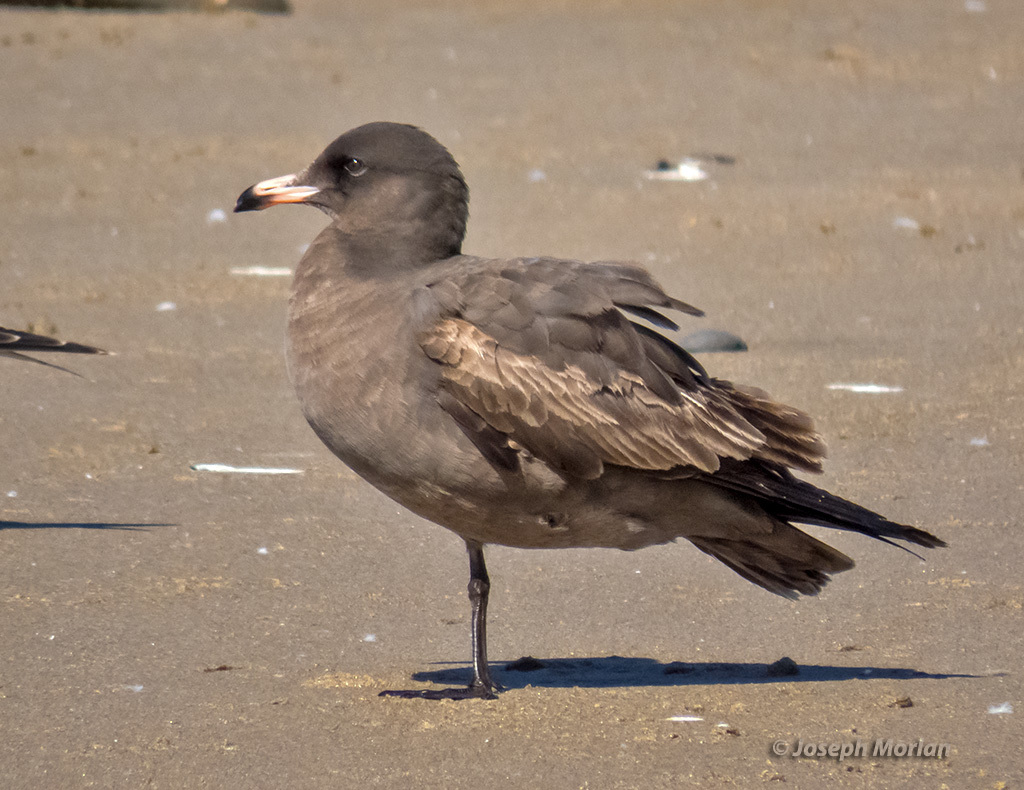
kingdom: Animalia
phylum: Chordata
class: Aves
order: Charadriiformes
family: Laridae
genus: Larus
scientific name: Larus heermanni
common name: Heermann's gull
